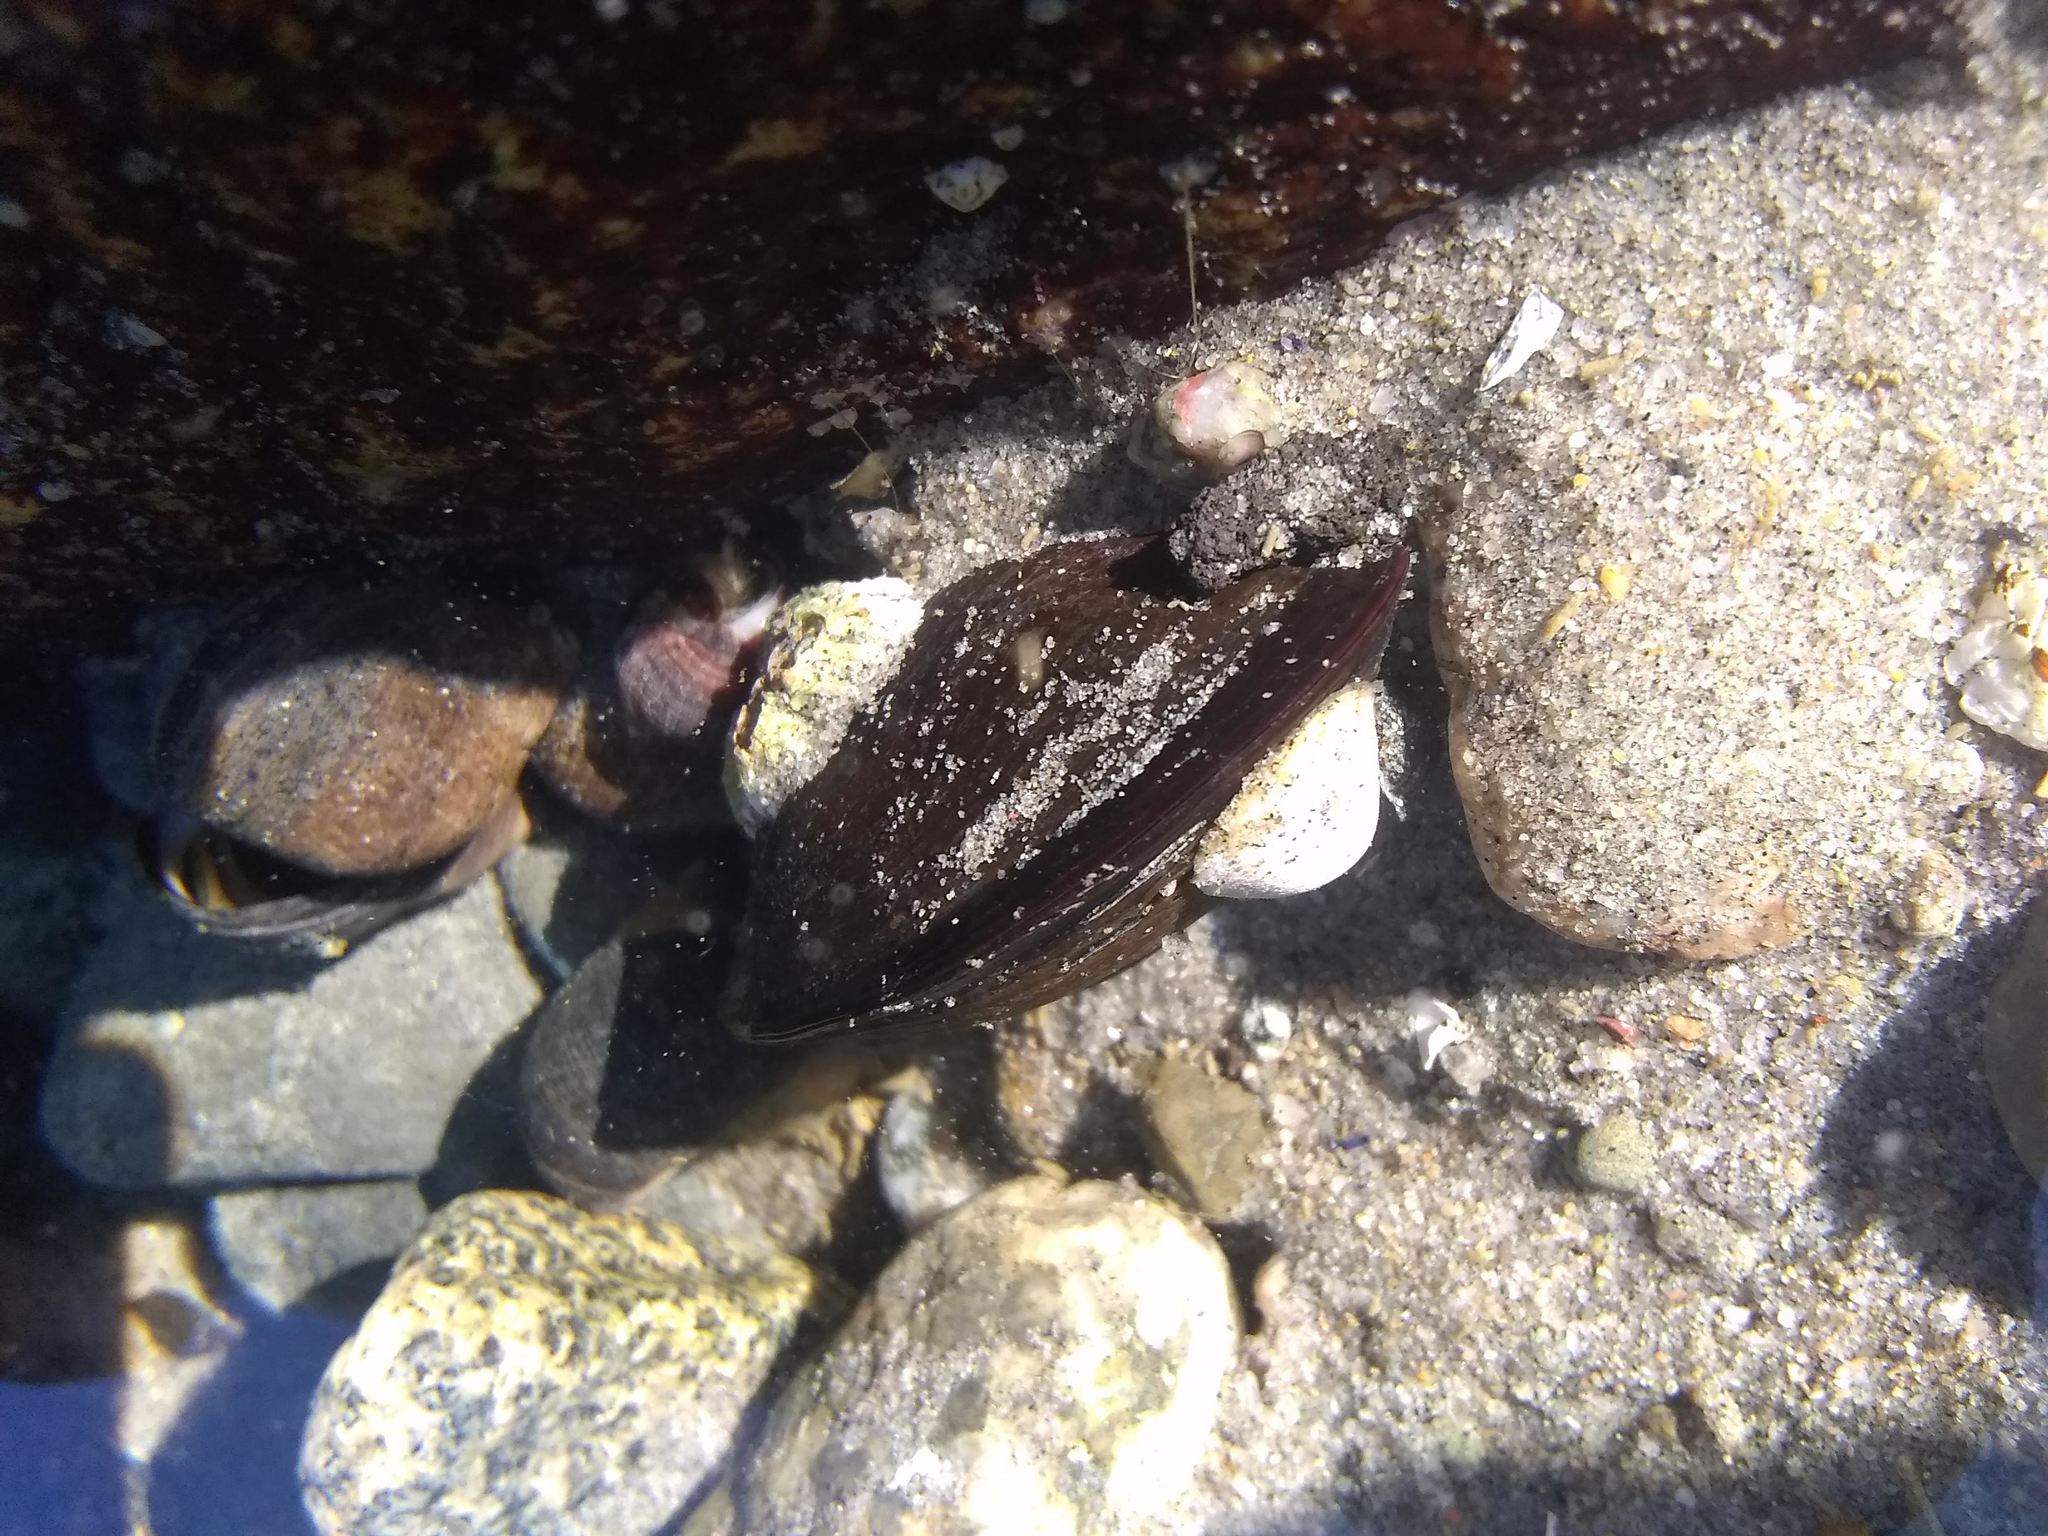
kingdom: Animalia
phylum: Mollusca
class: Bivalvia
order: Mytilida
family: Mytilidae
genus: Mytilus
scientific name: Mytilus edulis
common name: Blue mussel
